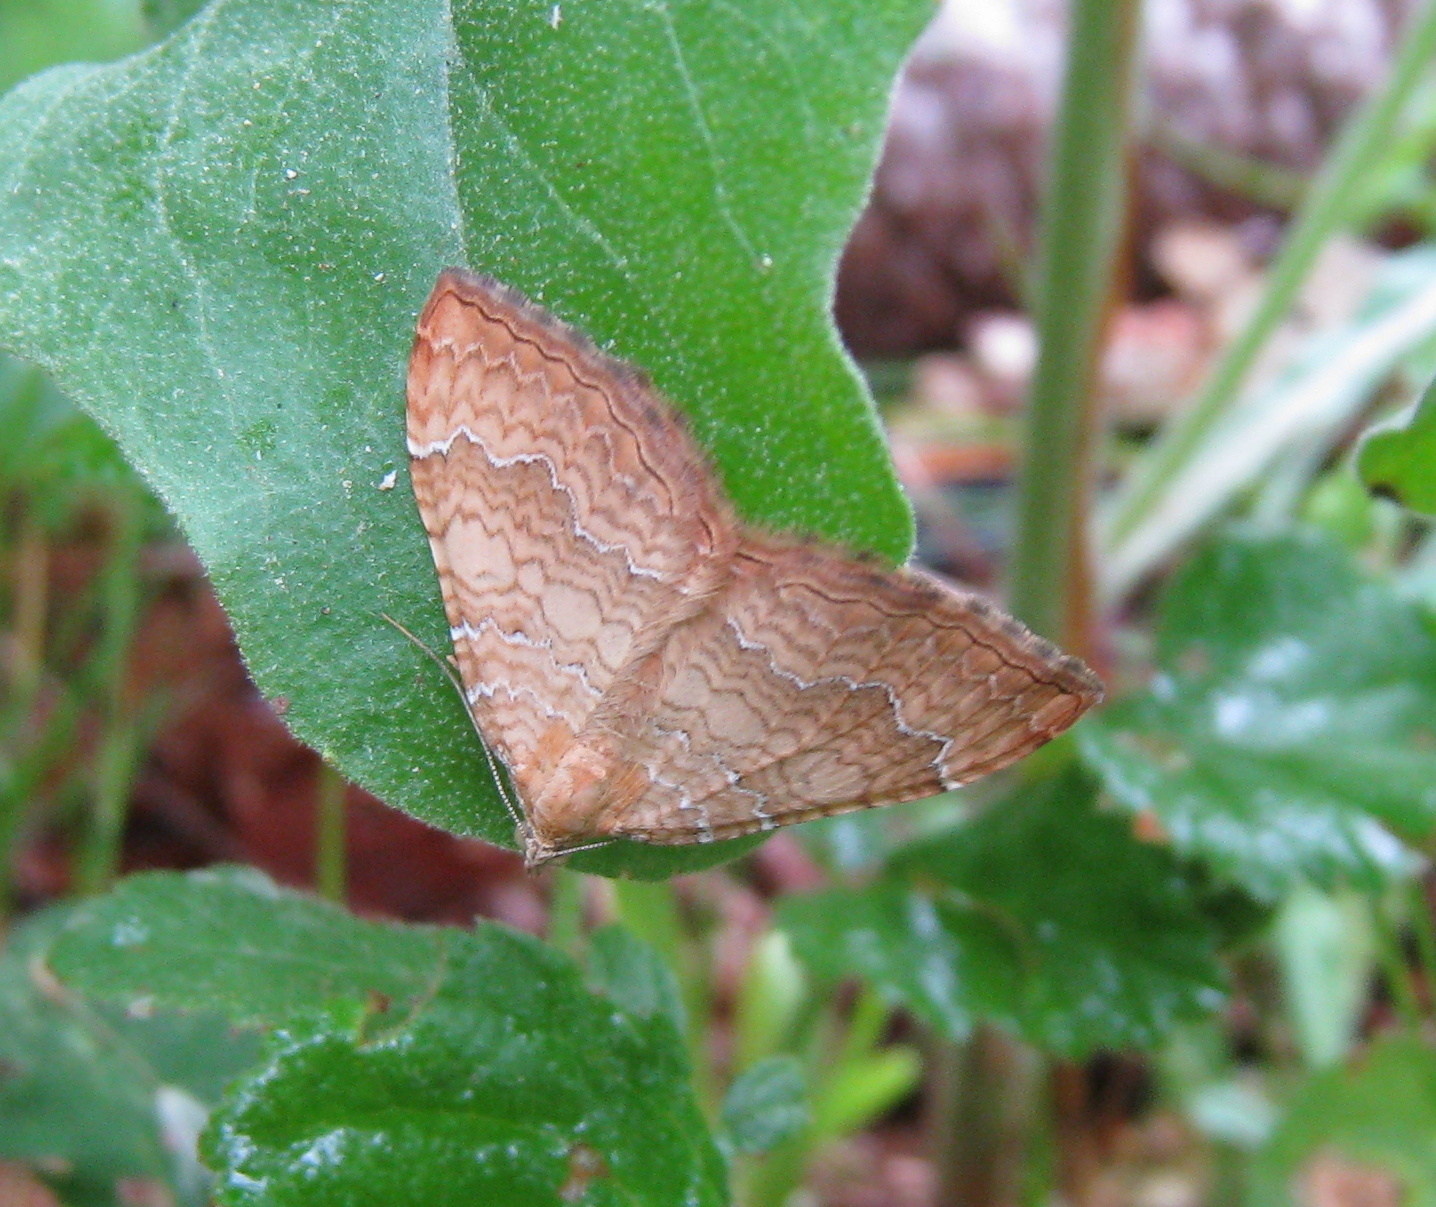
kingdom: Animalia
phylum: Arthropoda
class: Insecta
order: Lepidoptera
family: Geometridae
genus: Camptogramma
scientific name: Camptogramma bilineata
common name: Yellow shell
